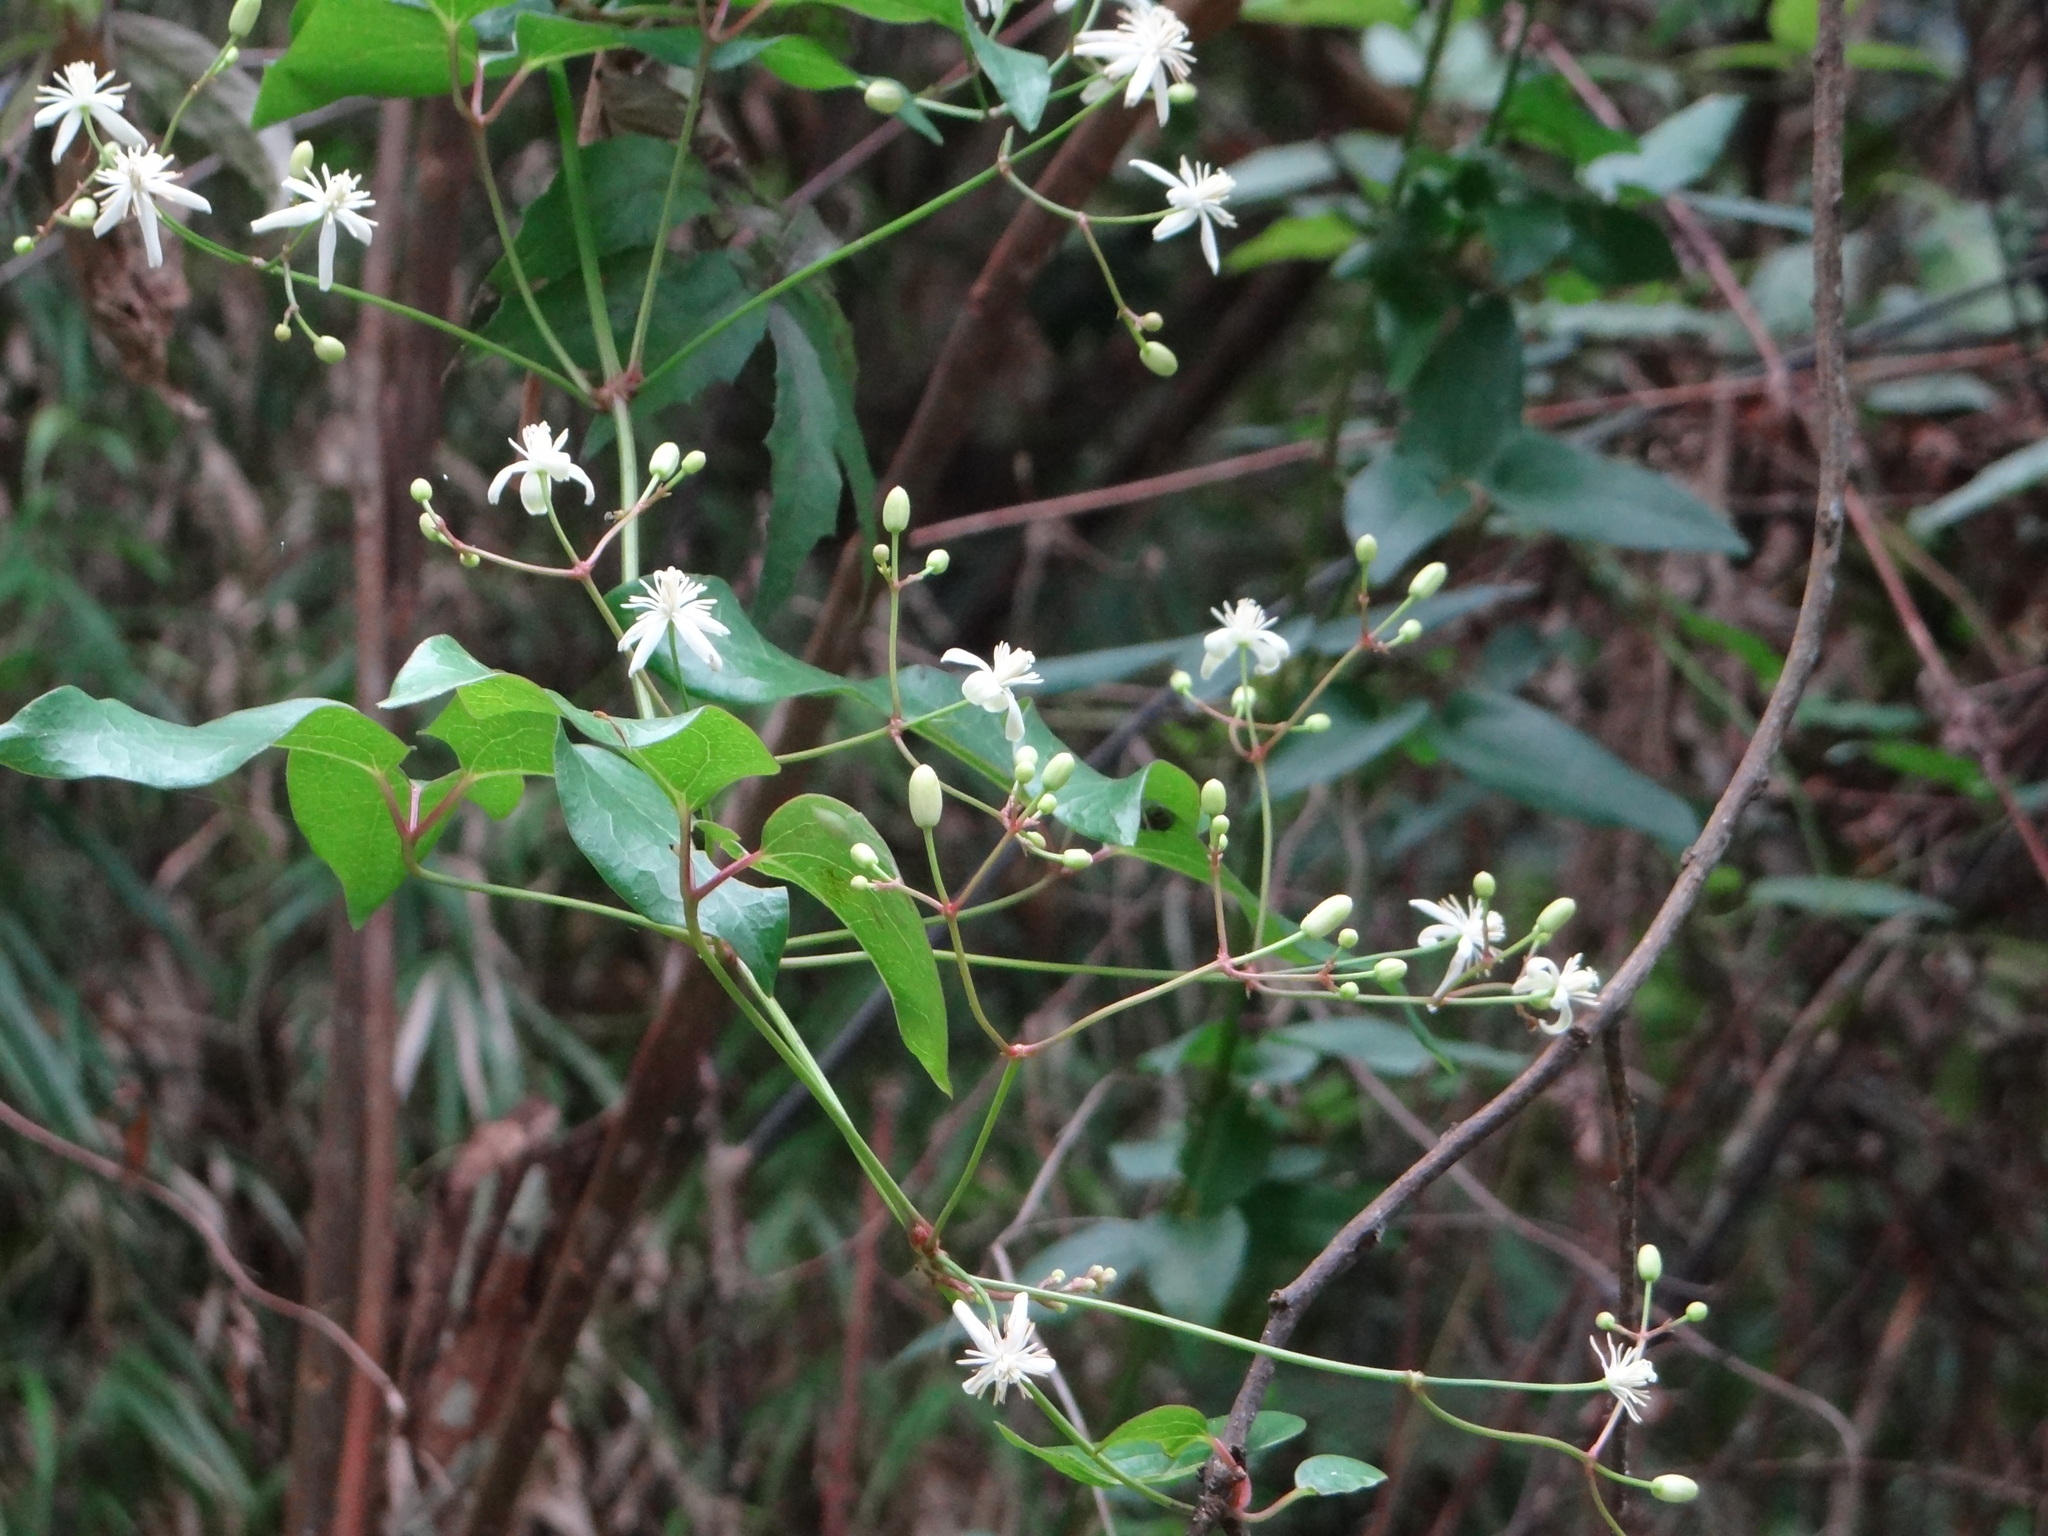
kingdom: Plantae
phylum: Tracheophyta
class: Magnoliopsida
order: Ranunculales
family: Ranunculaceae
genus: Clematis
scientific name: Clematis meyeniana
